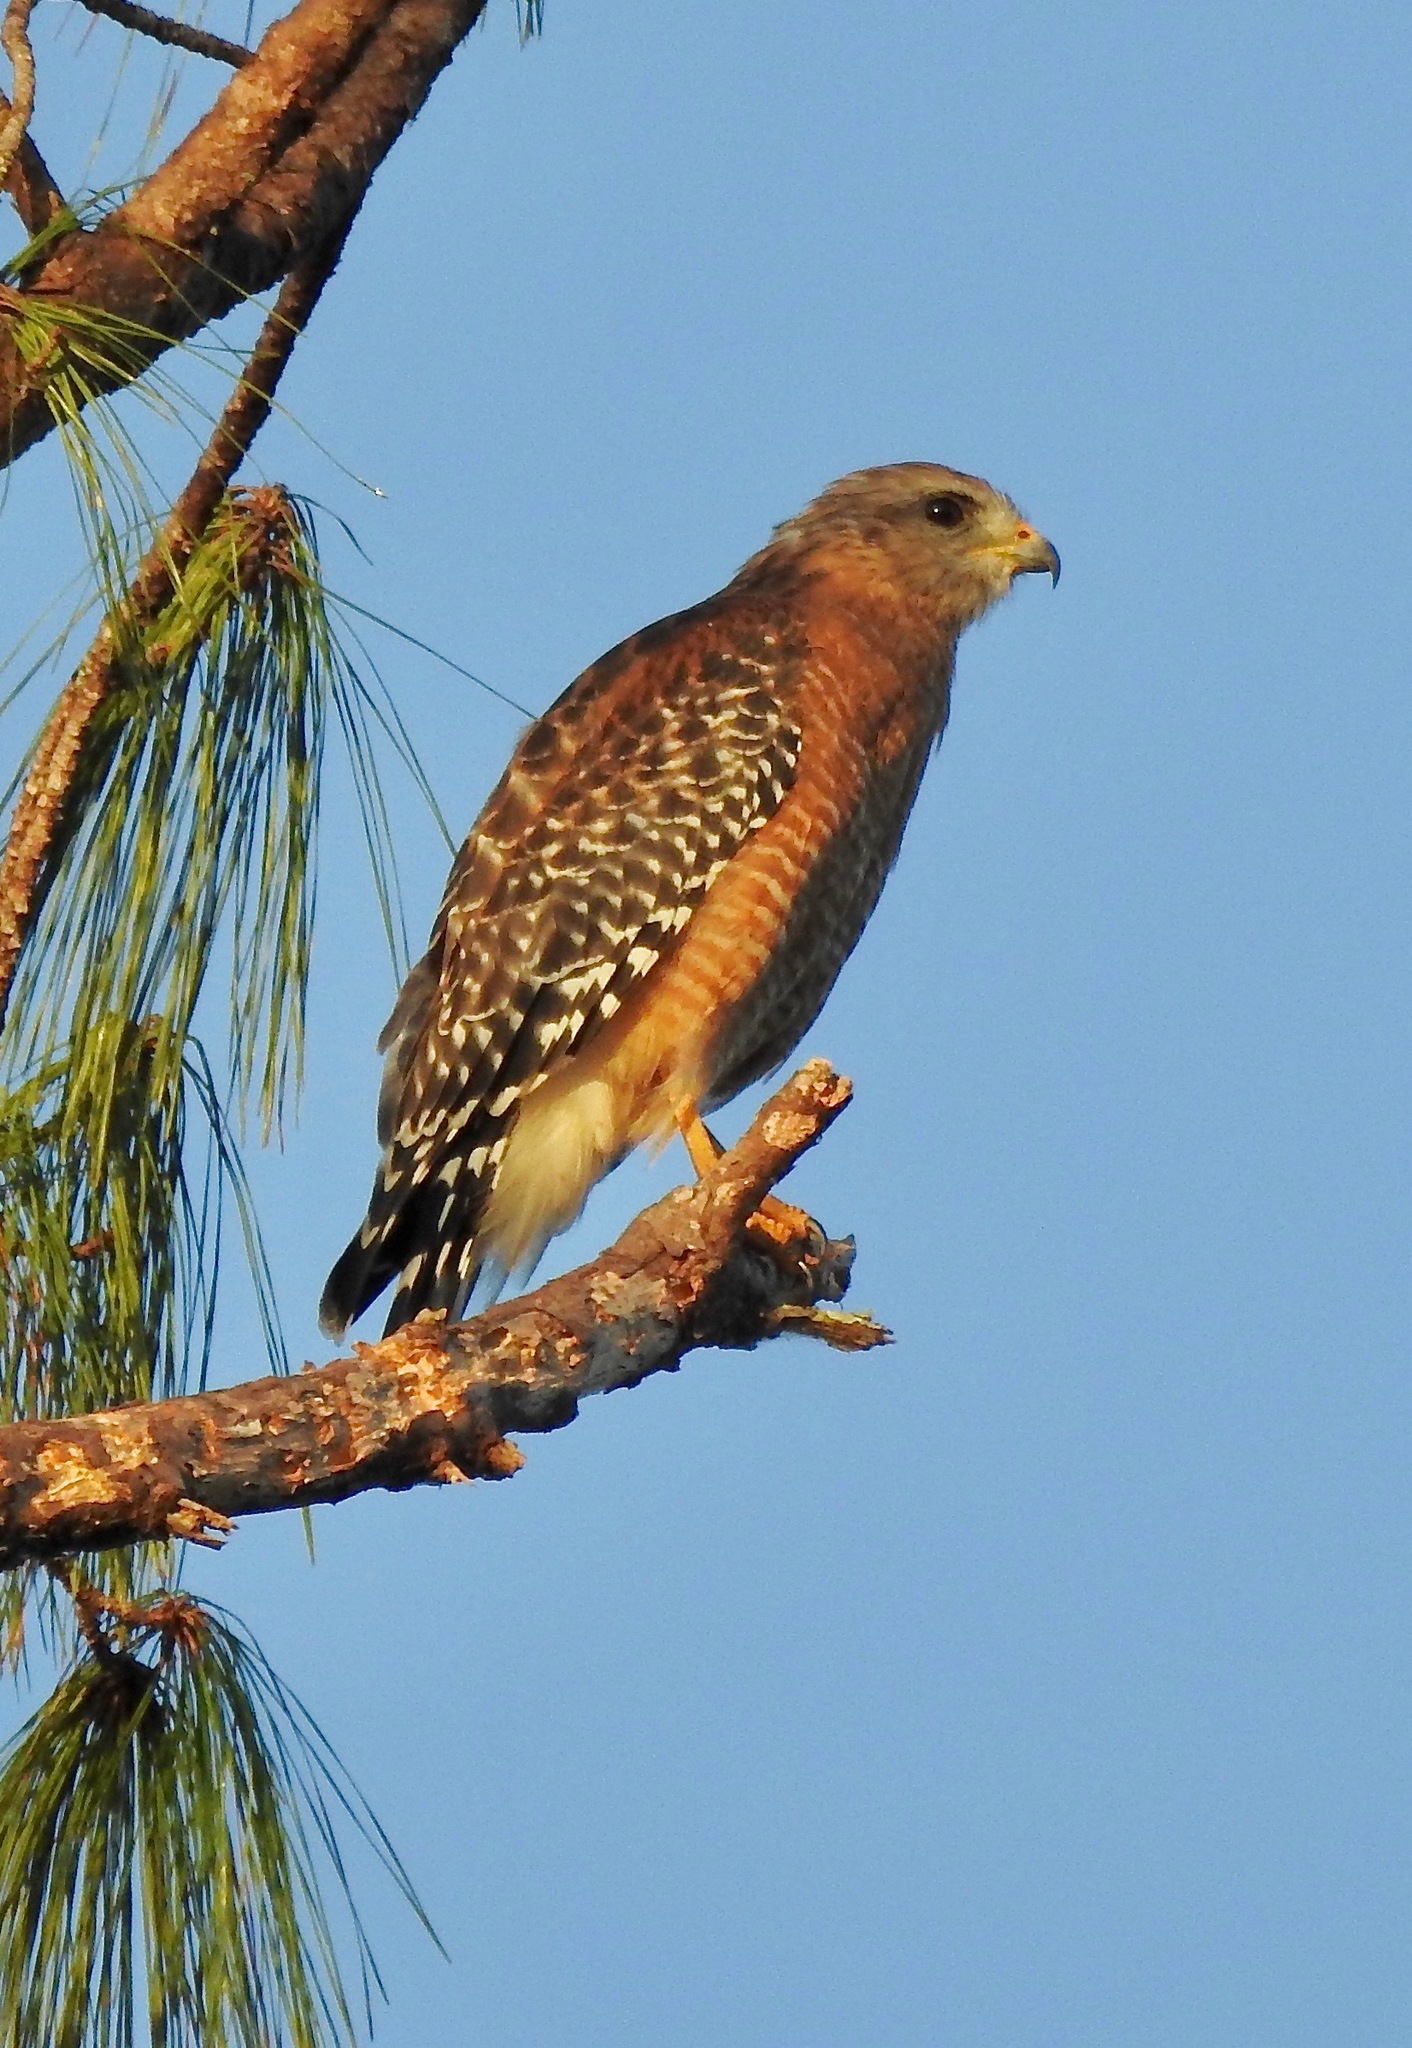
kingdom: Animalia
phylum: Chordata
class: Aves
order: Accipitriformes
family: Accipitridae
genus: Buteo
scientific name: Buteo lineatus
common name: Red-shouldered hawk
